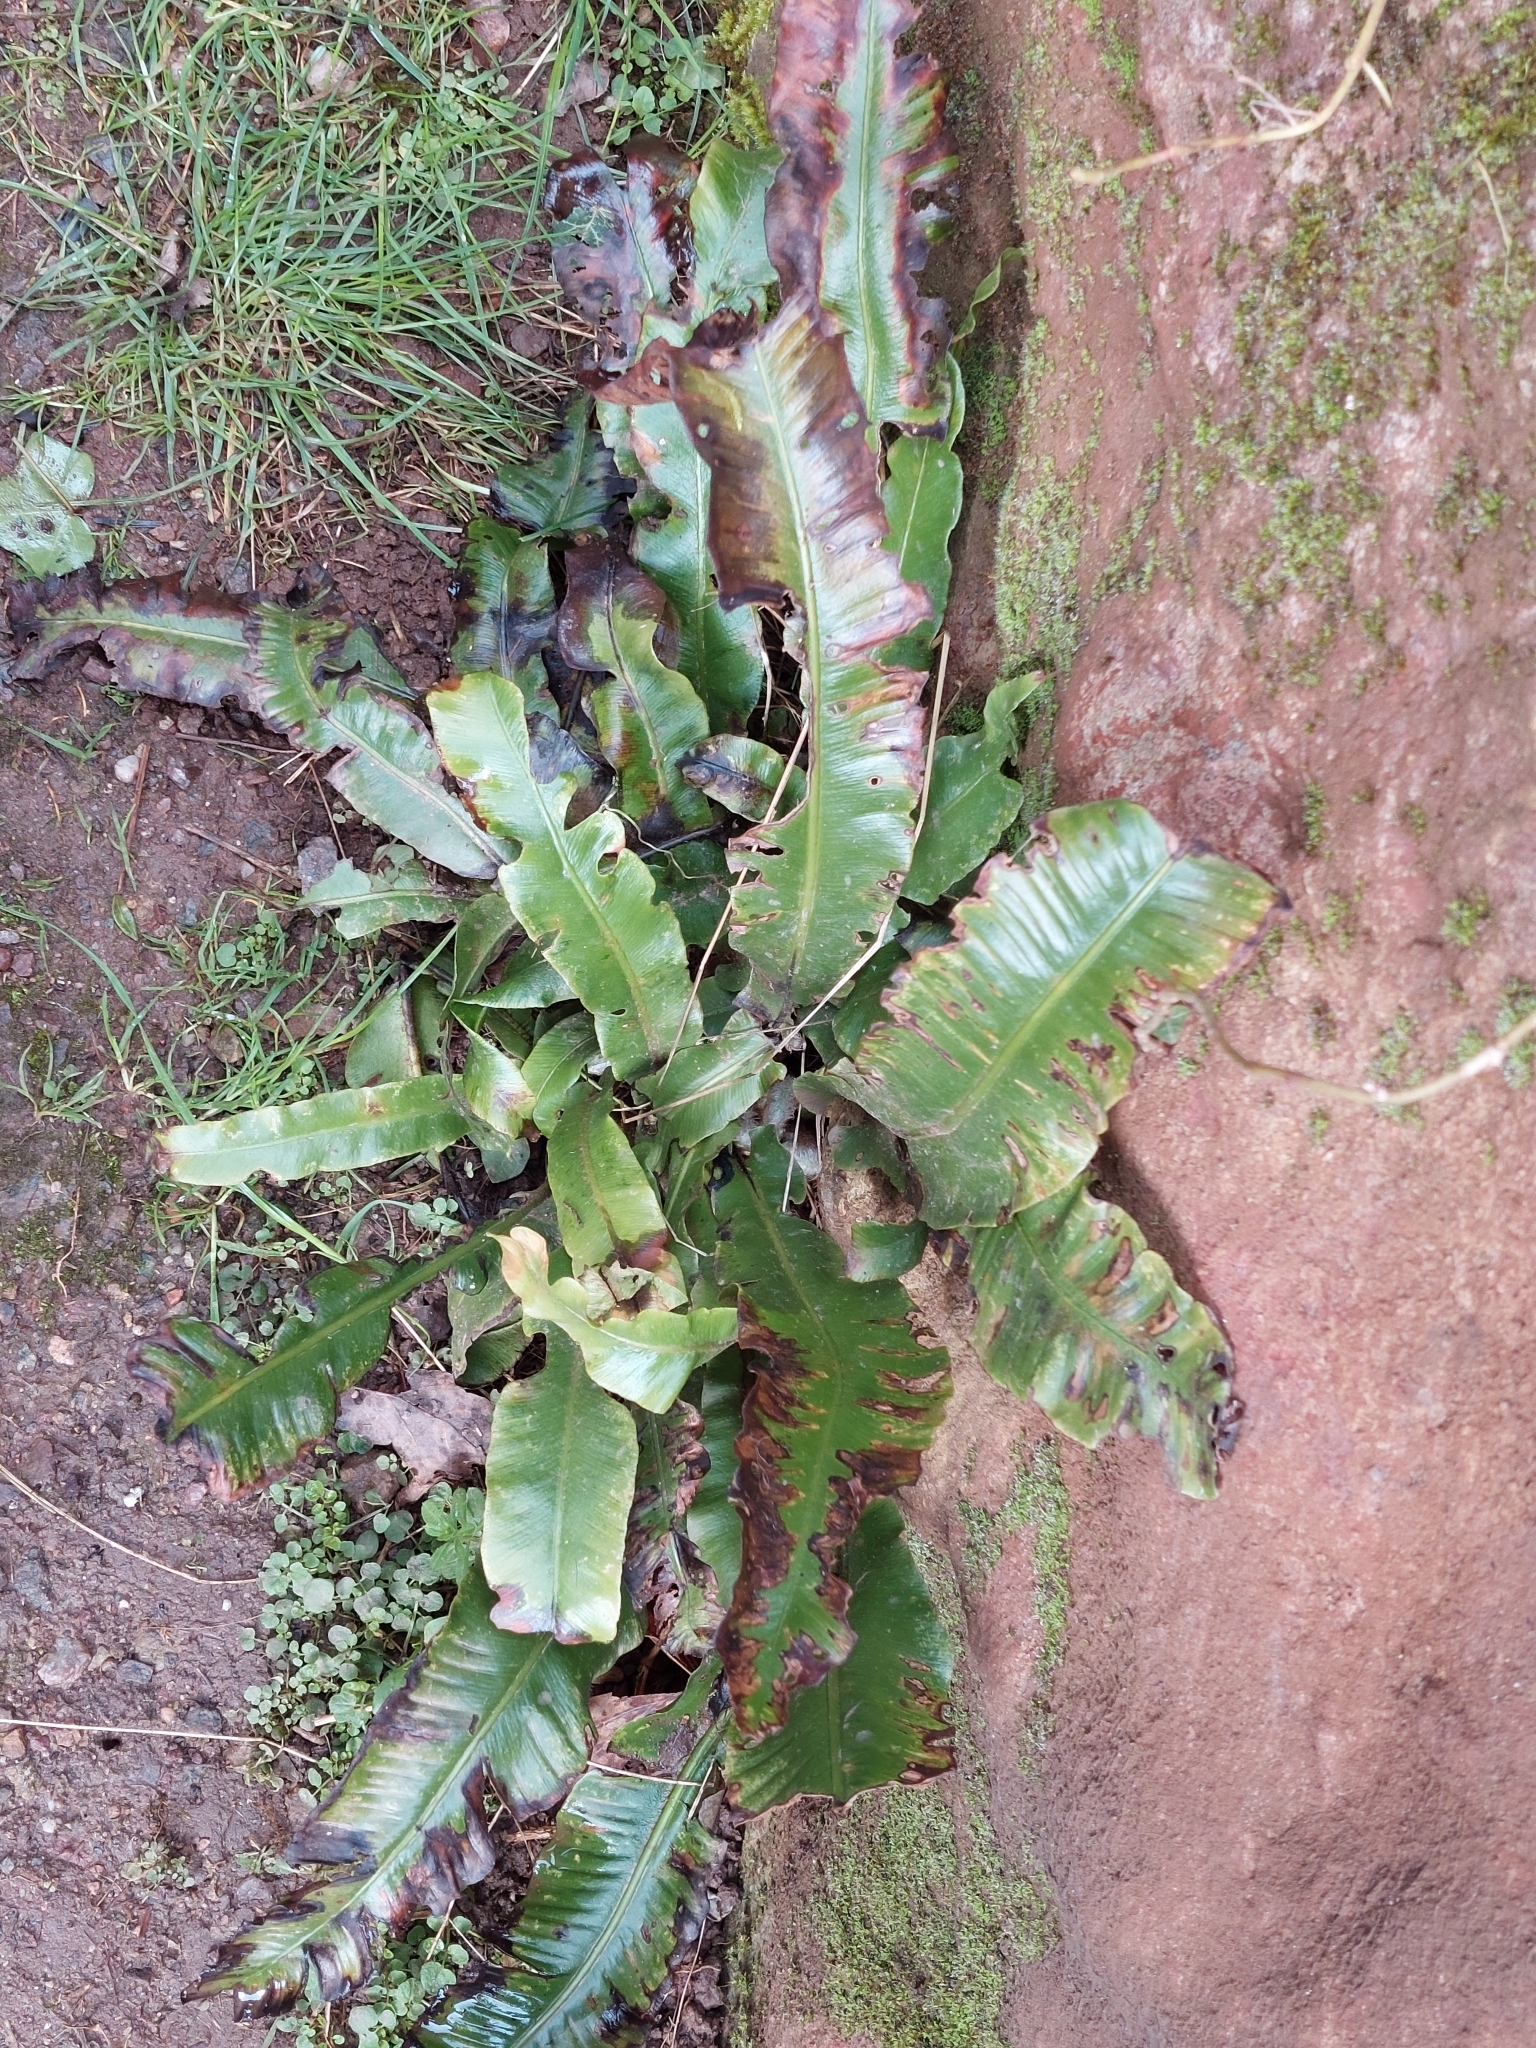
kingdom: Plantae
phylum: Tracheophyta
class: Polypodiopsida
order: Polypodiales
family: Aspleniaceae
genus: Asplenium
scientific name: Asplenium scolopendrium
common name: Hart's-tongue fern
